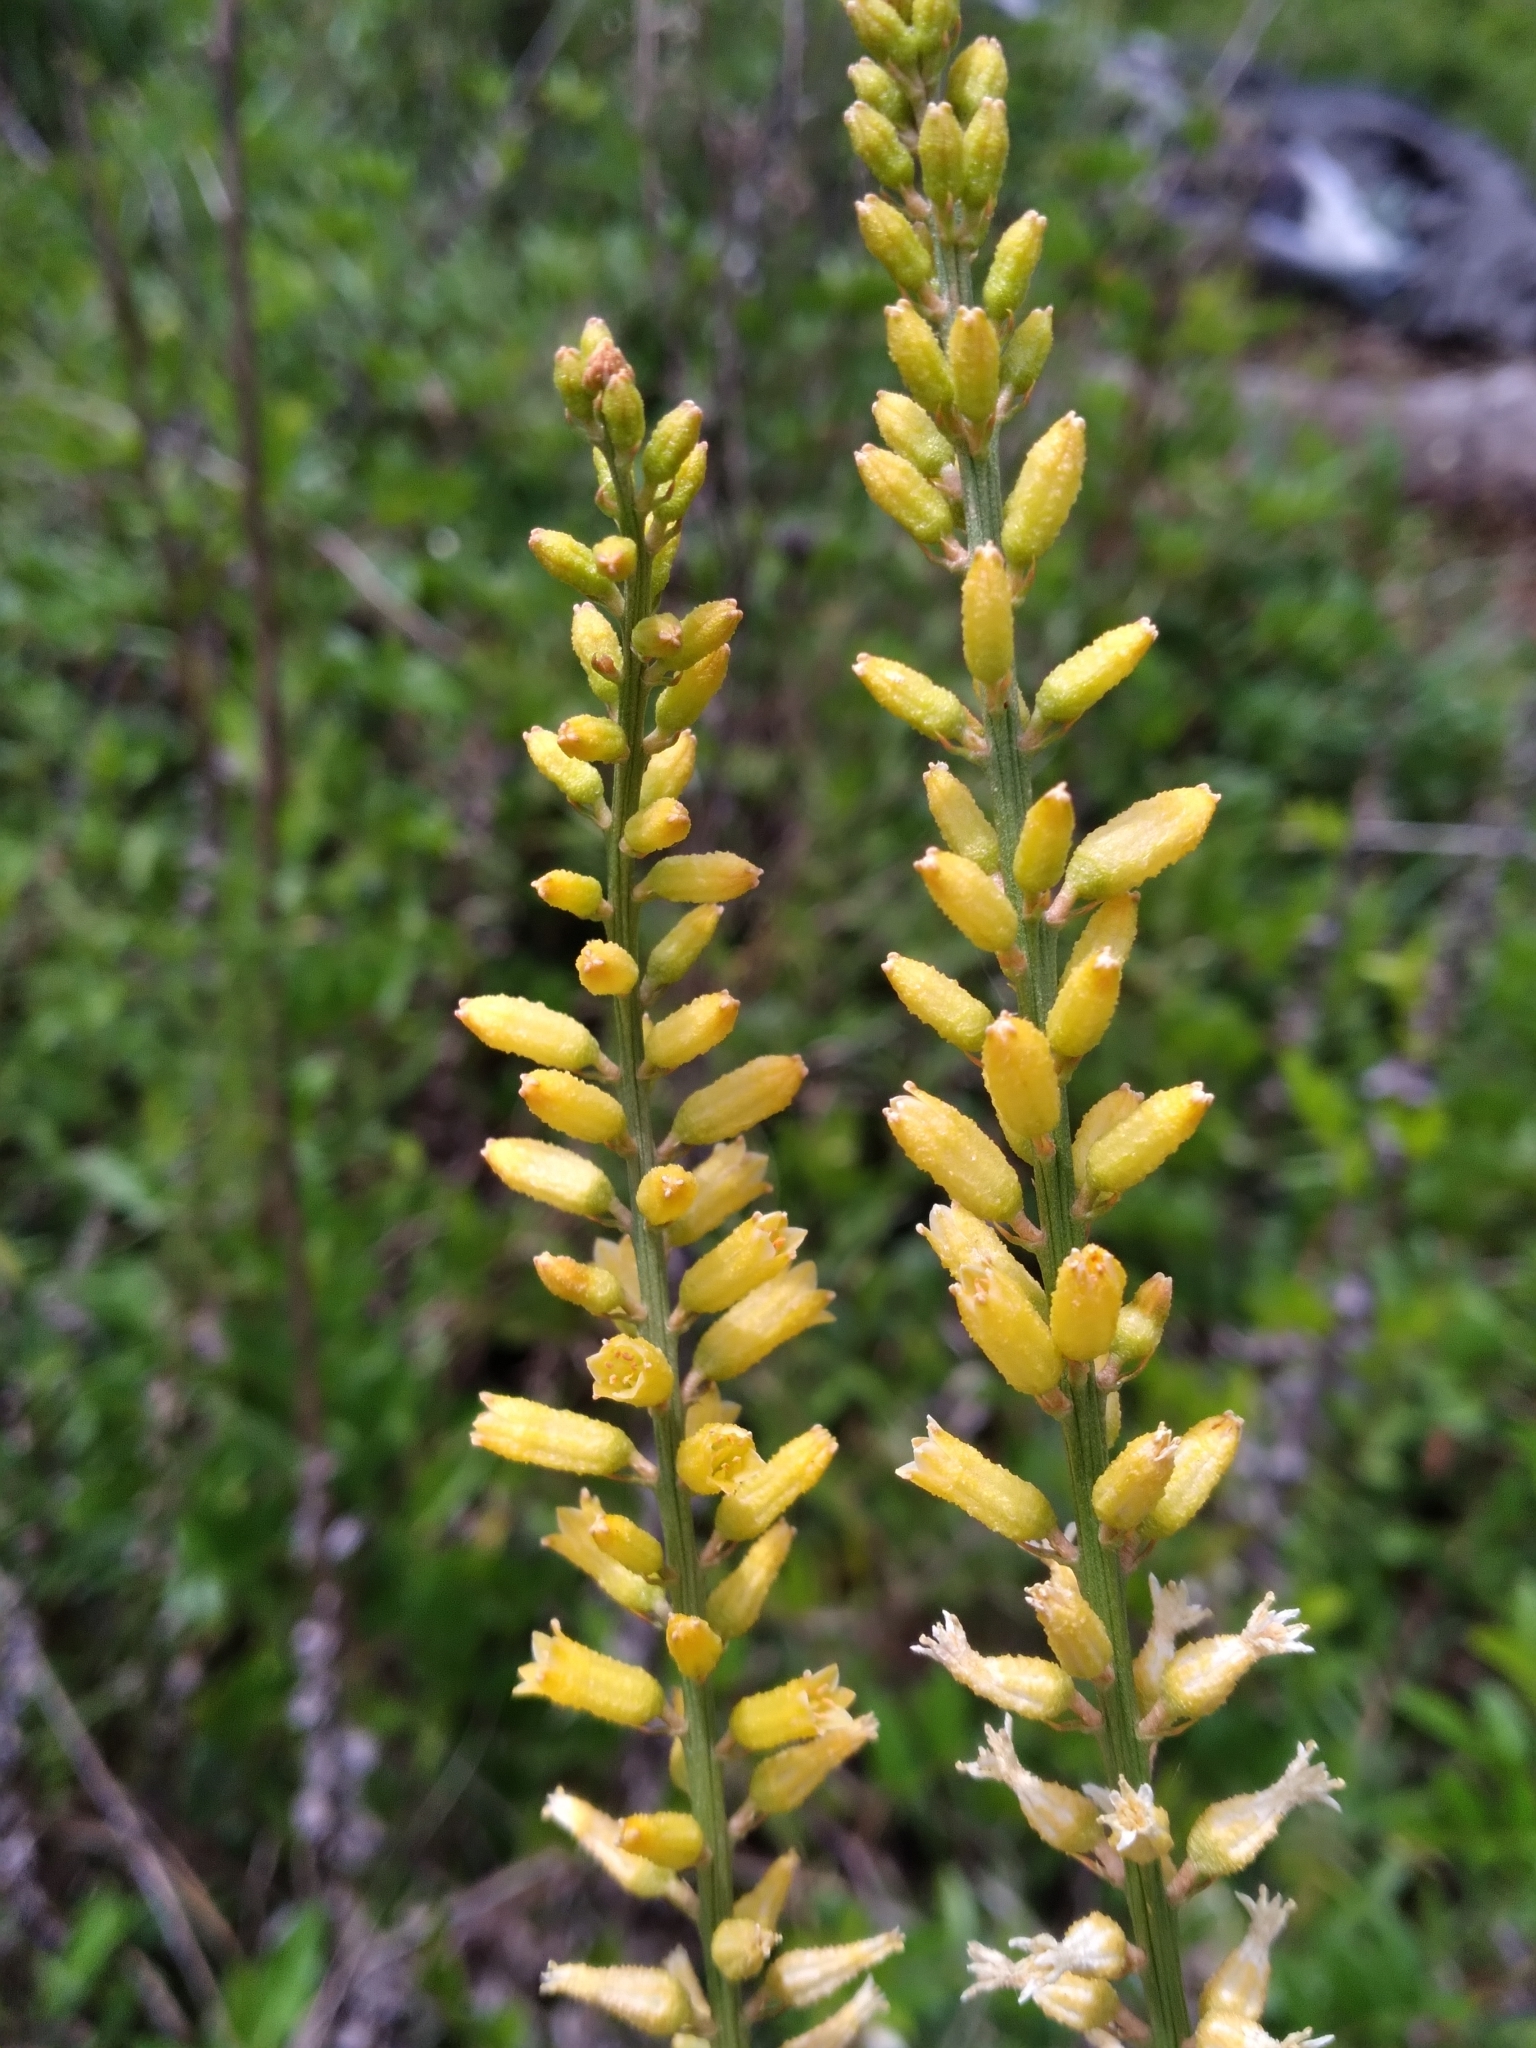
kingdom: Plantae
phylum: Tracheophyta
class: Liliopsida
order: Dioscoreales
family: Nartheciaceae
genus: Aletris
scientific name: Aletris lutea
